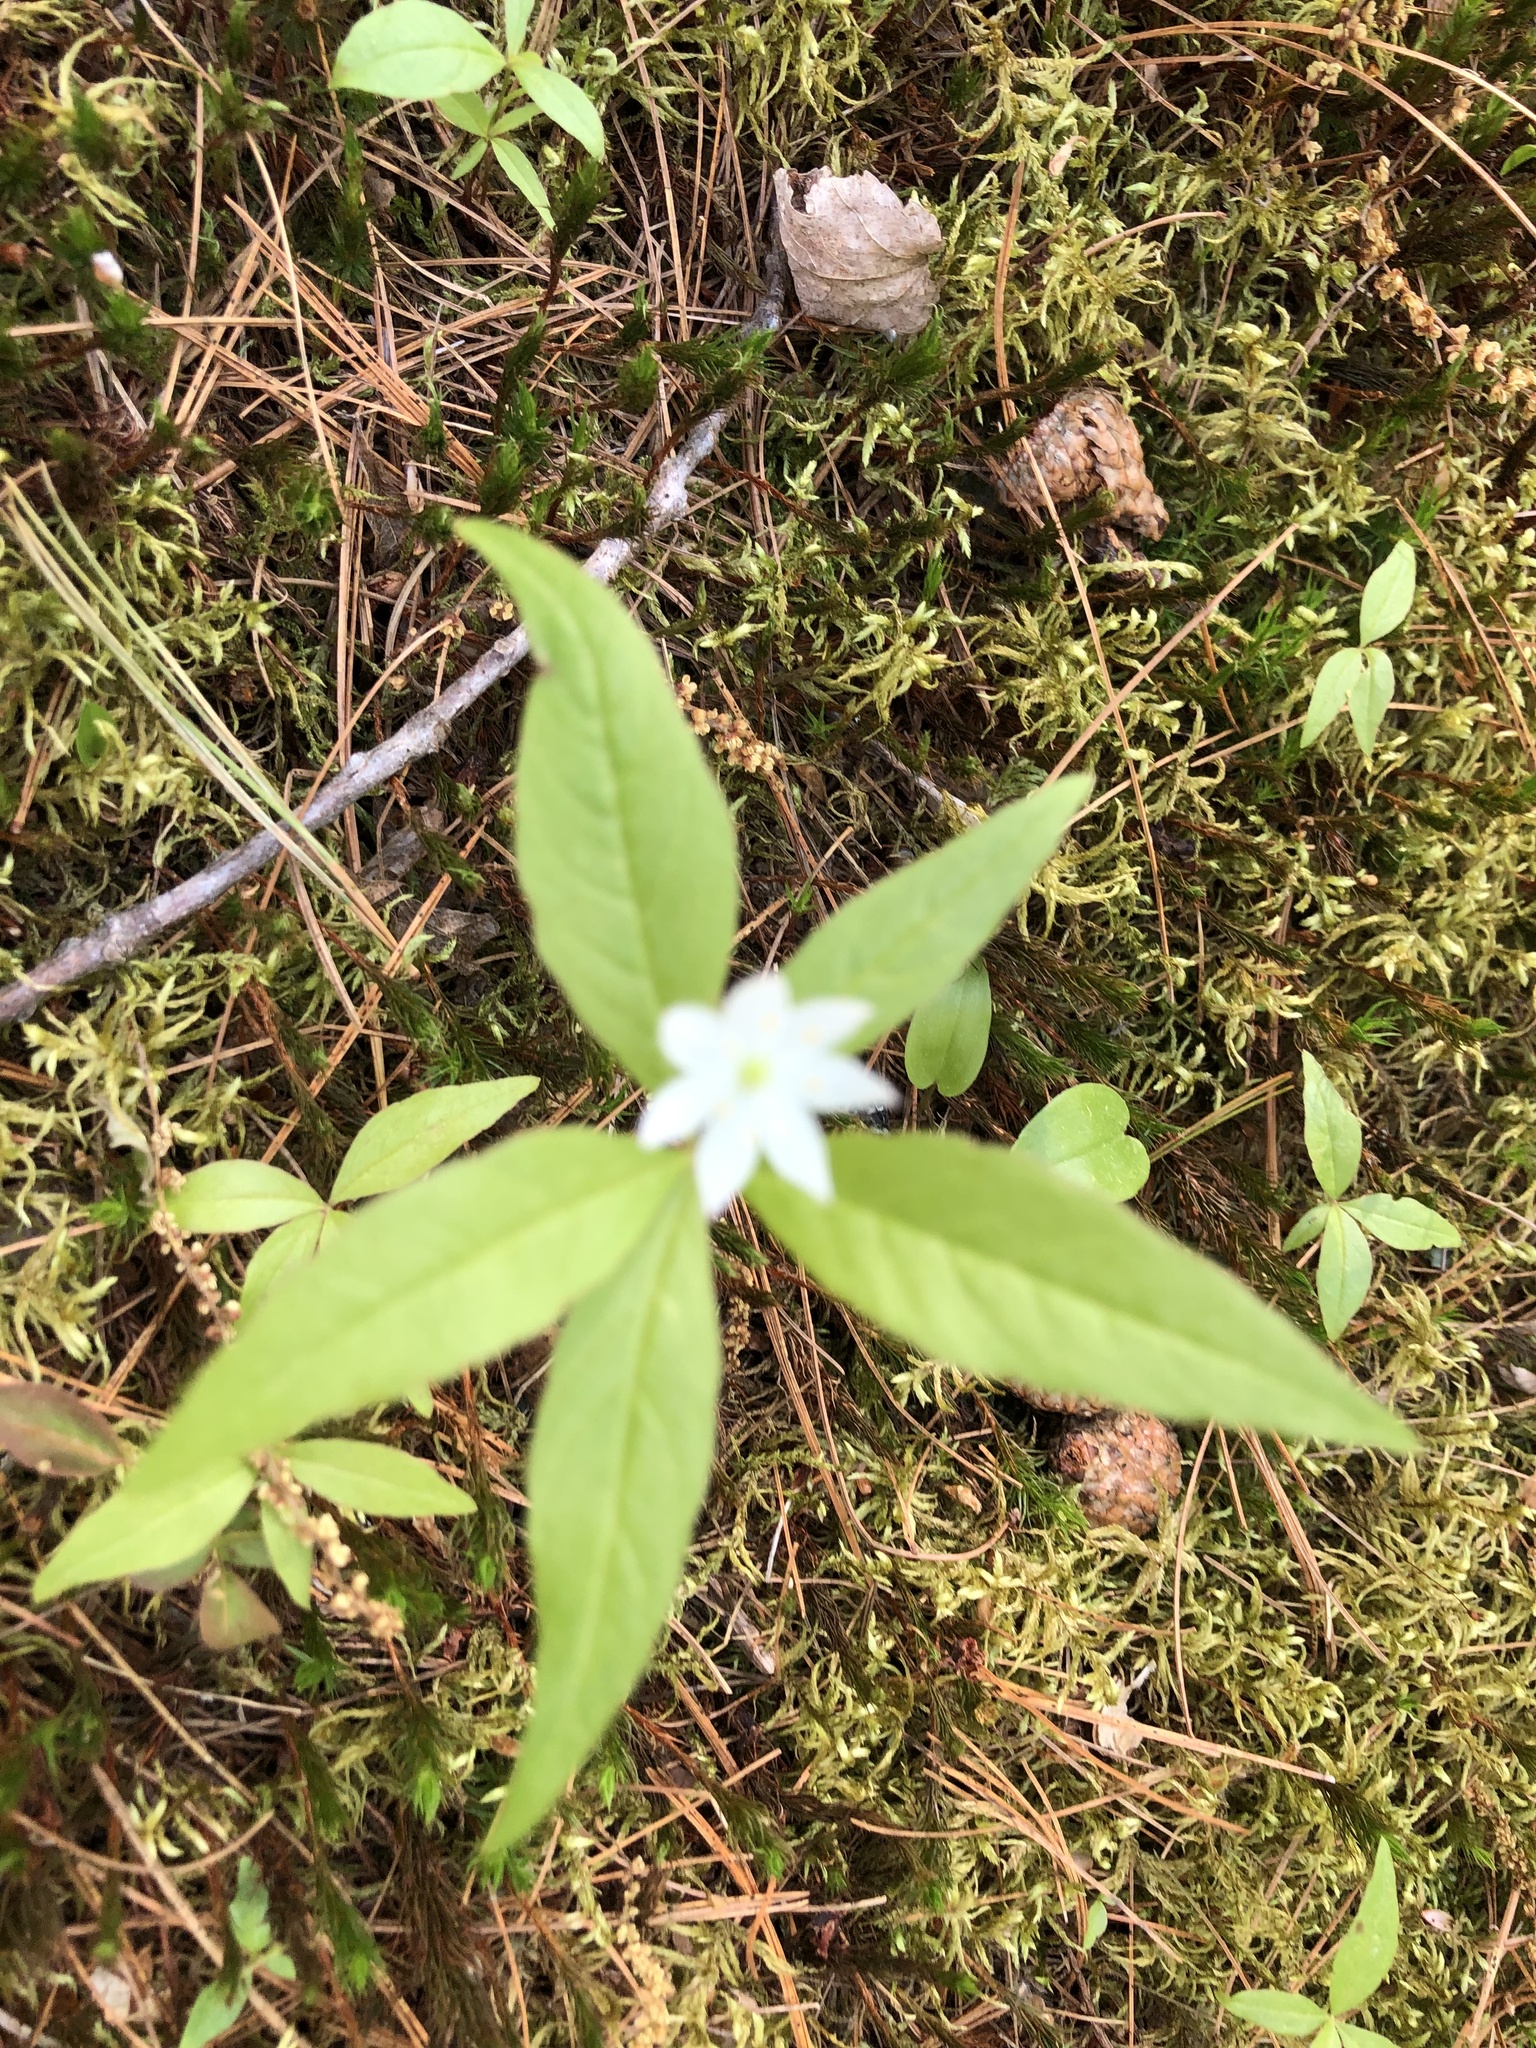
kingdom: Plantae
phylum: Tracheophyta
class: Magnoliopsida
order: Ericales
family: Primulaceae
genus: Lysimachia
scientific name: Lysimachia borealis
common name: American starflower
